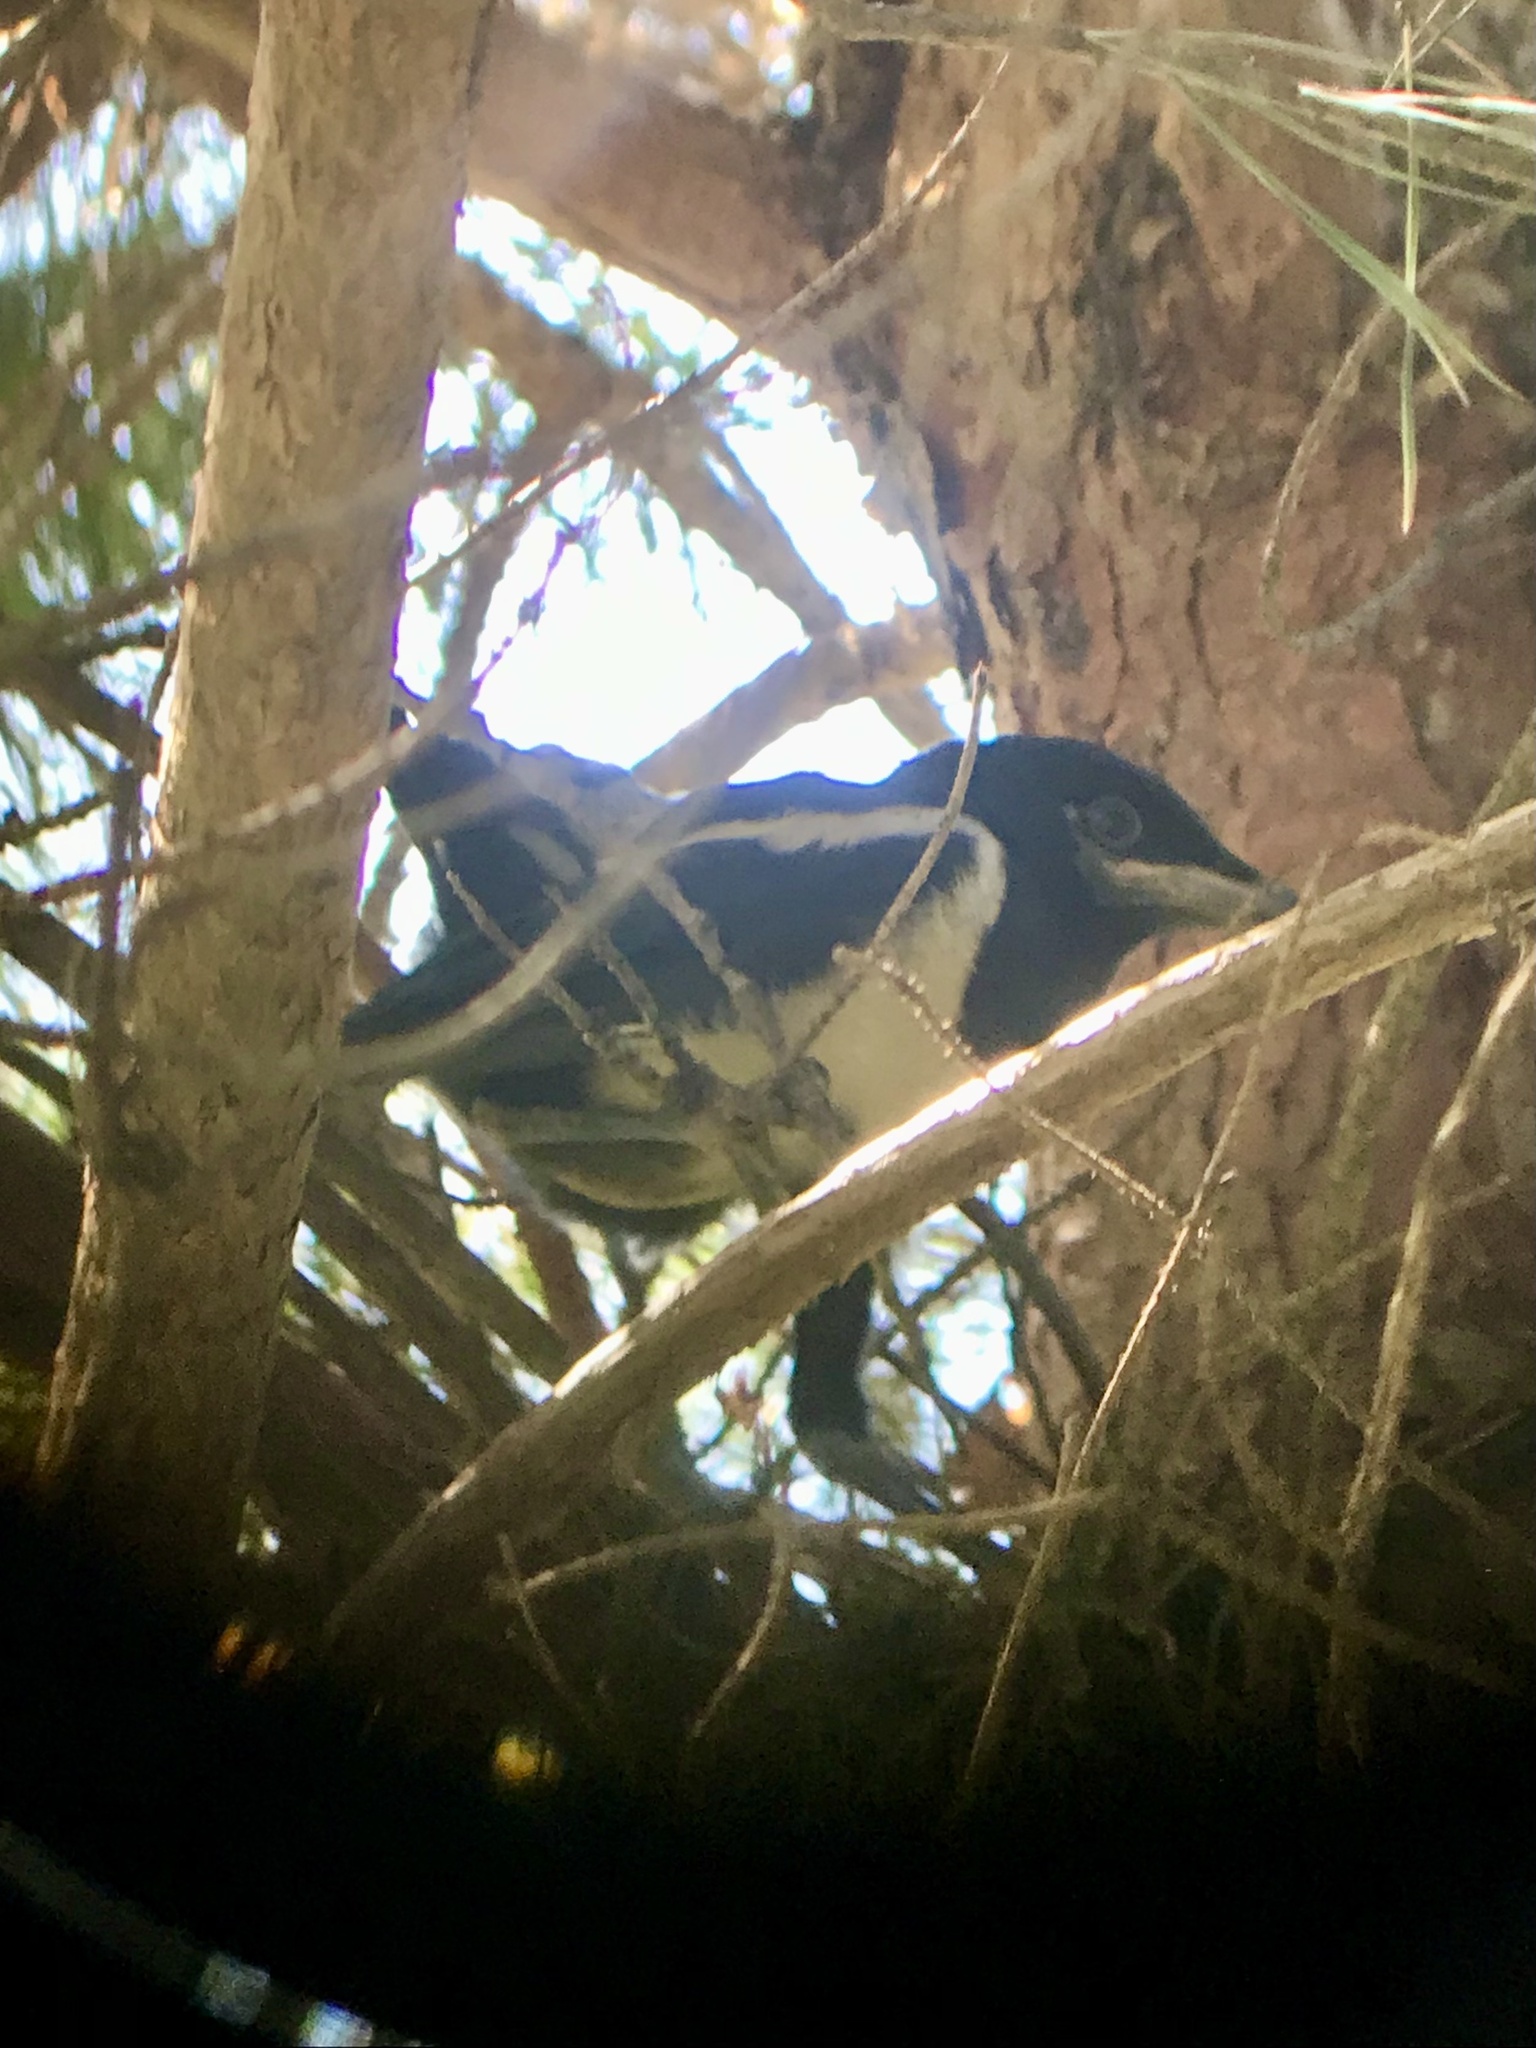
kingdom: Animalia
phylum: Chordata
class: Aves
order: Passeriformes
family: Corvidae
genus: Pica
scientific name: Pica hudsonia
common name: Black-billed magpie
